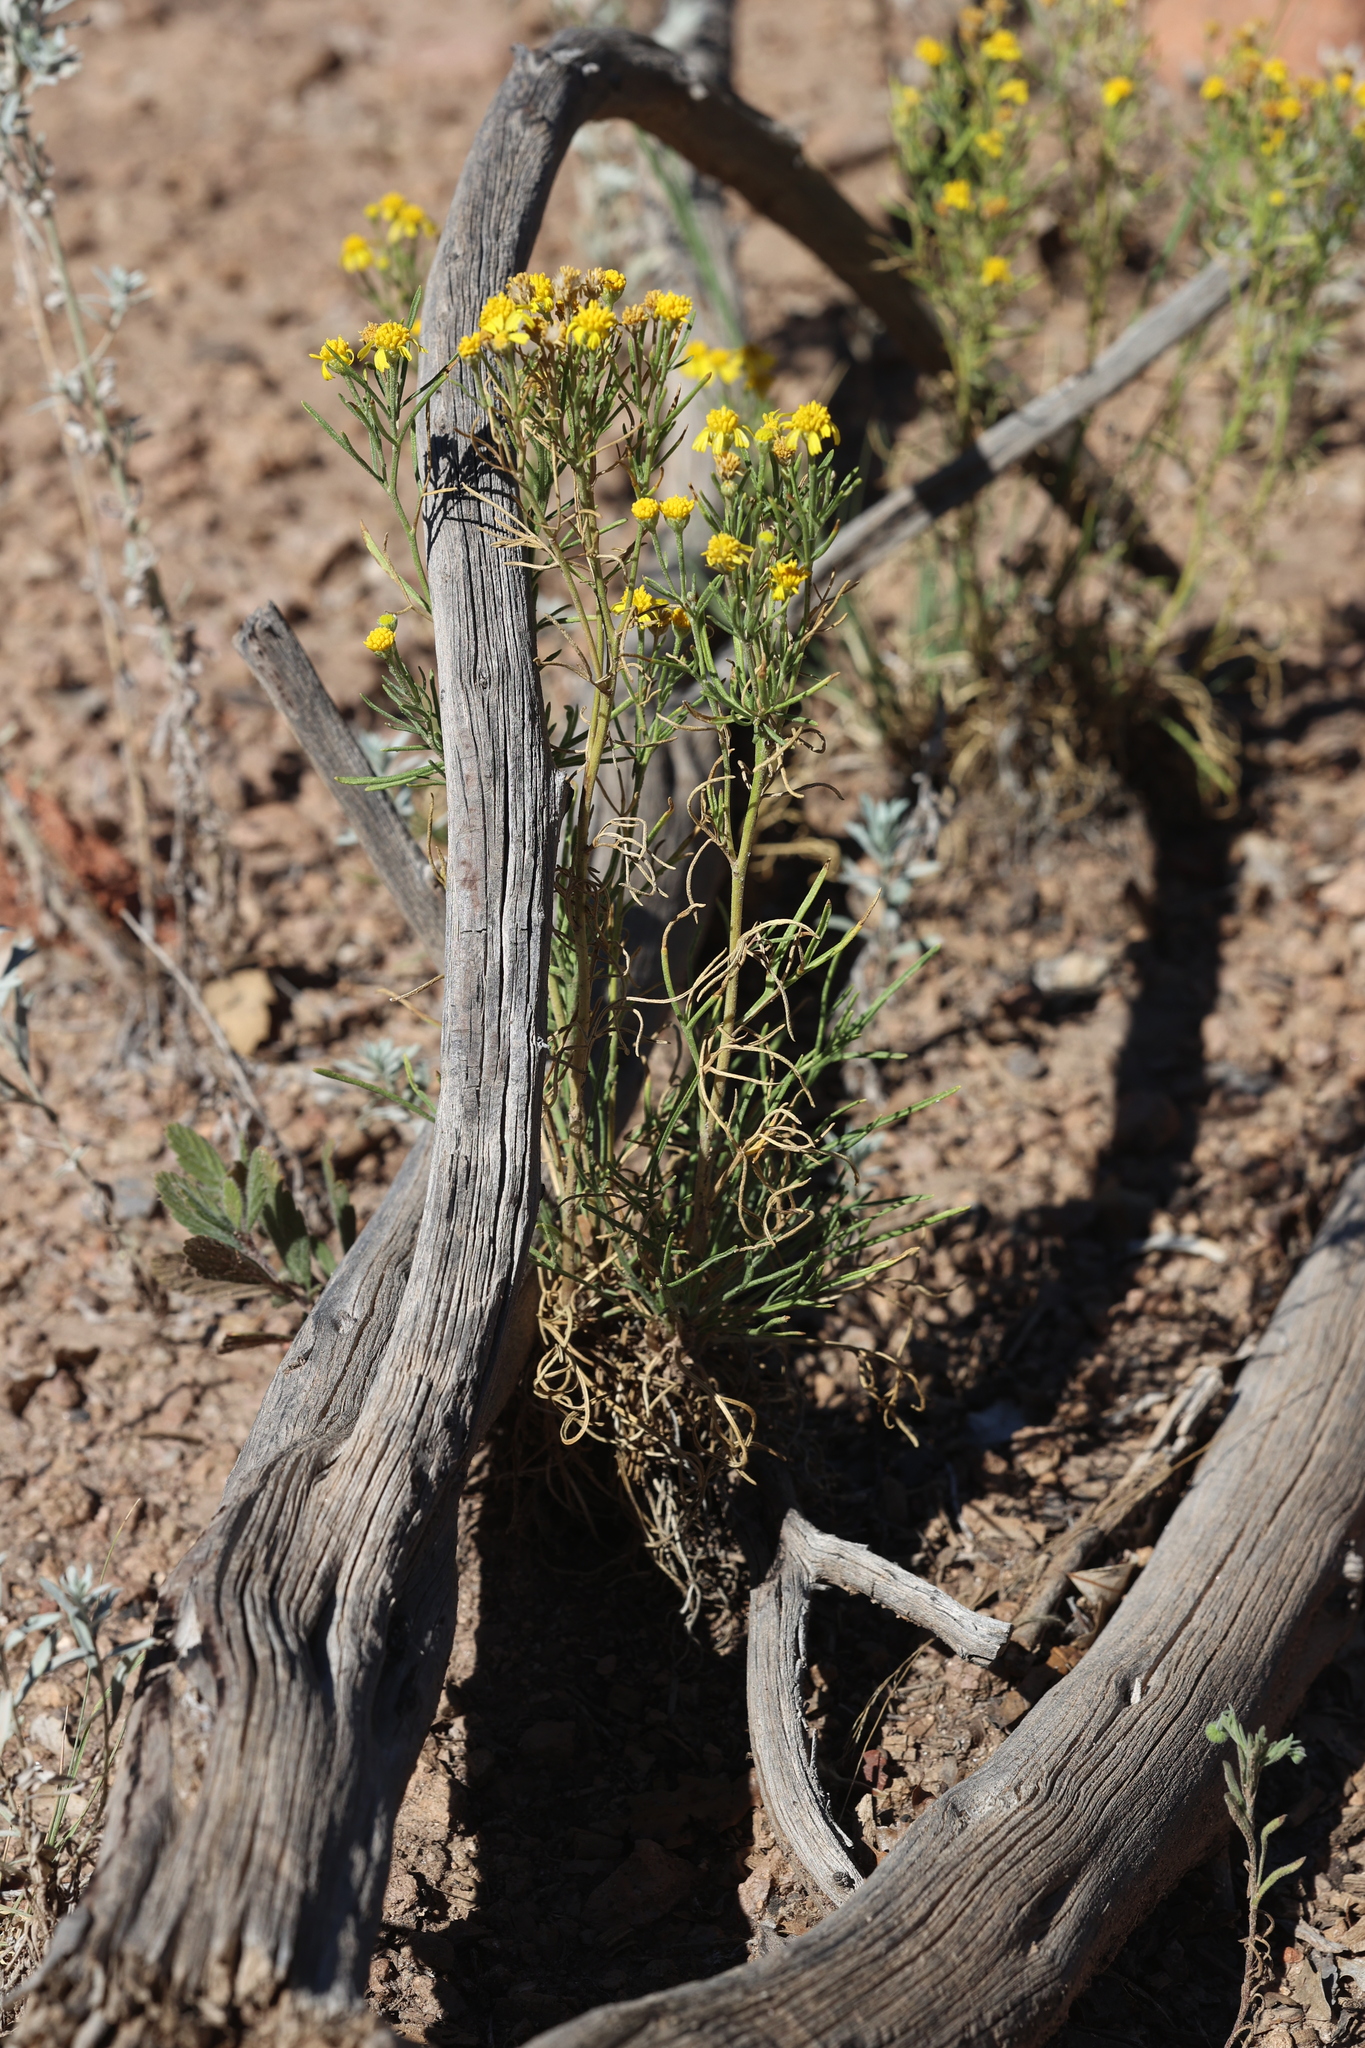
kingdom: Plantae
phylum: Tracheophyta
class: Magnoliopsida
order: Asterales
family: Asteraceae
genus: Hymenoxys
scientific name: Hymenoxys richardsonii
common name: Pingue rubberweed
